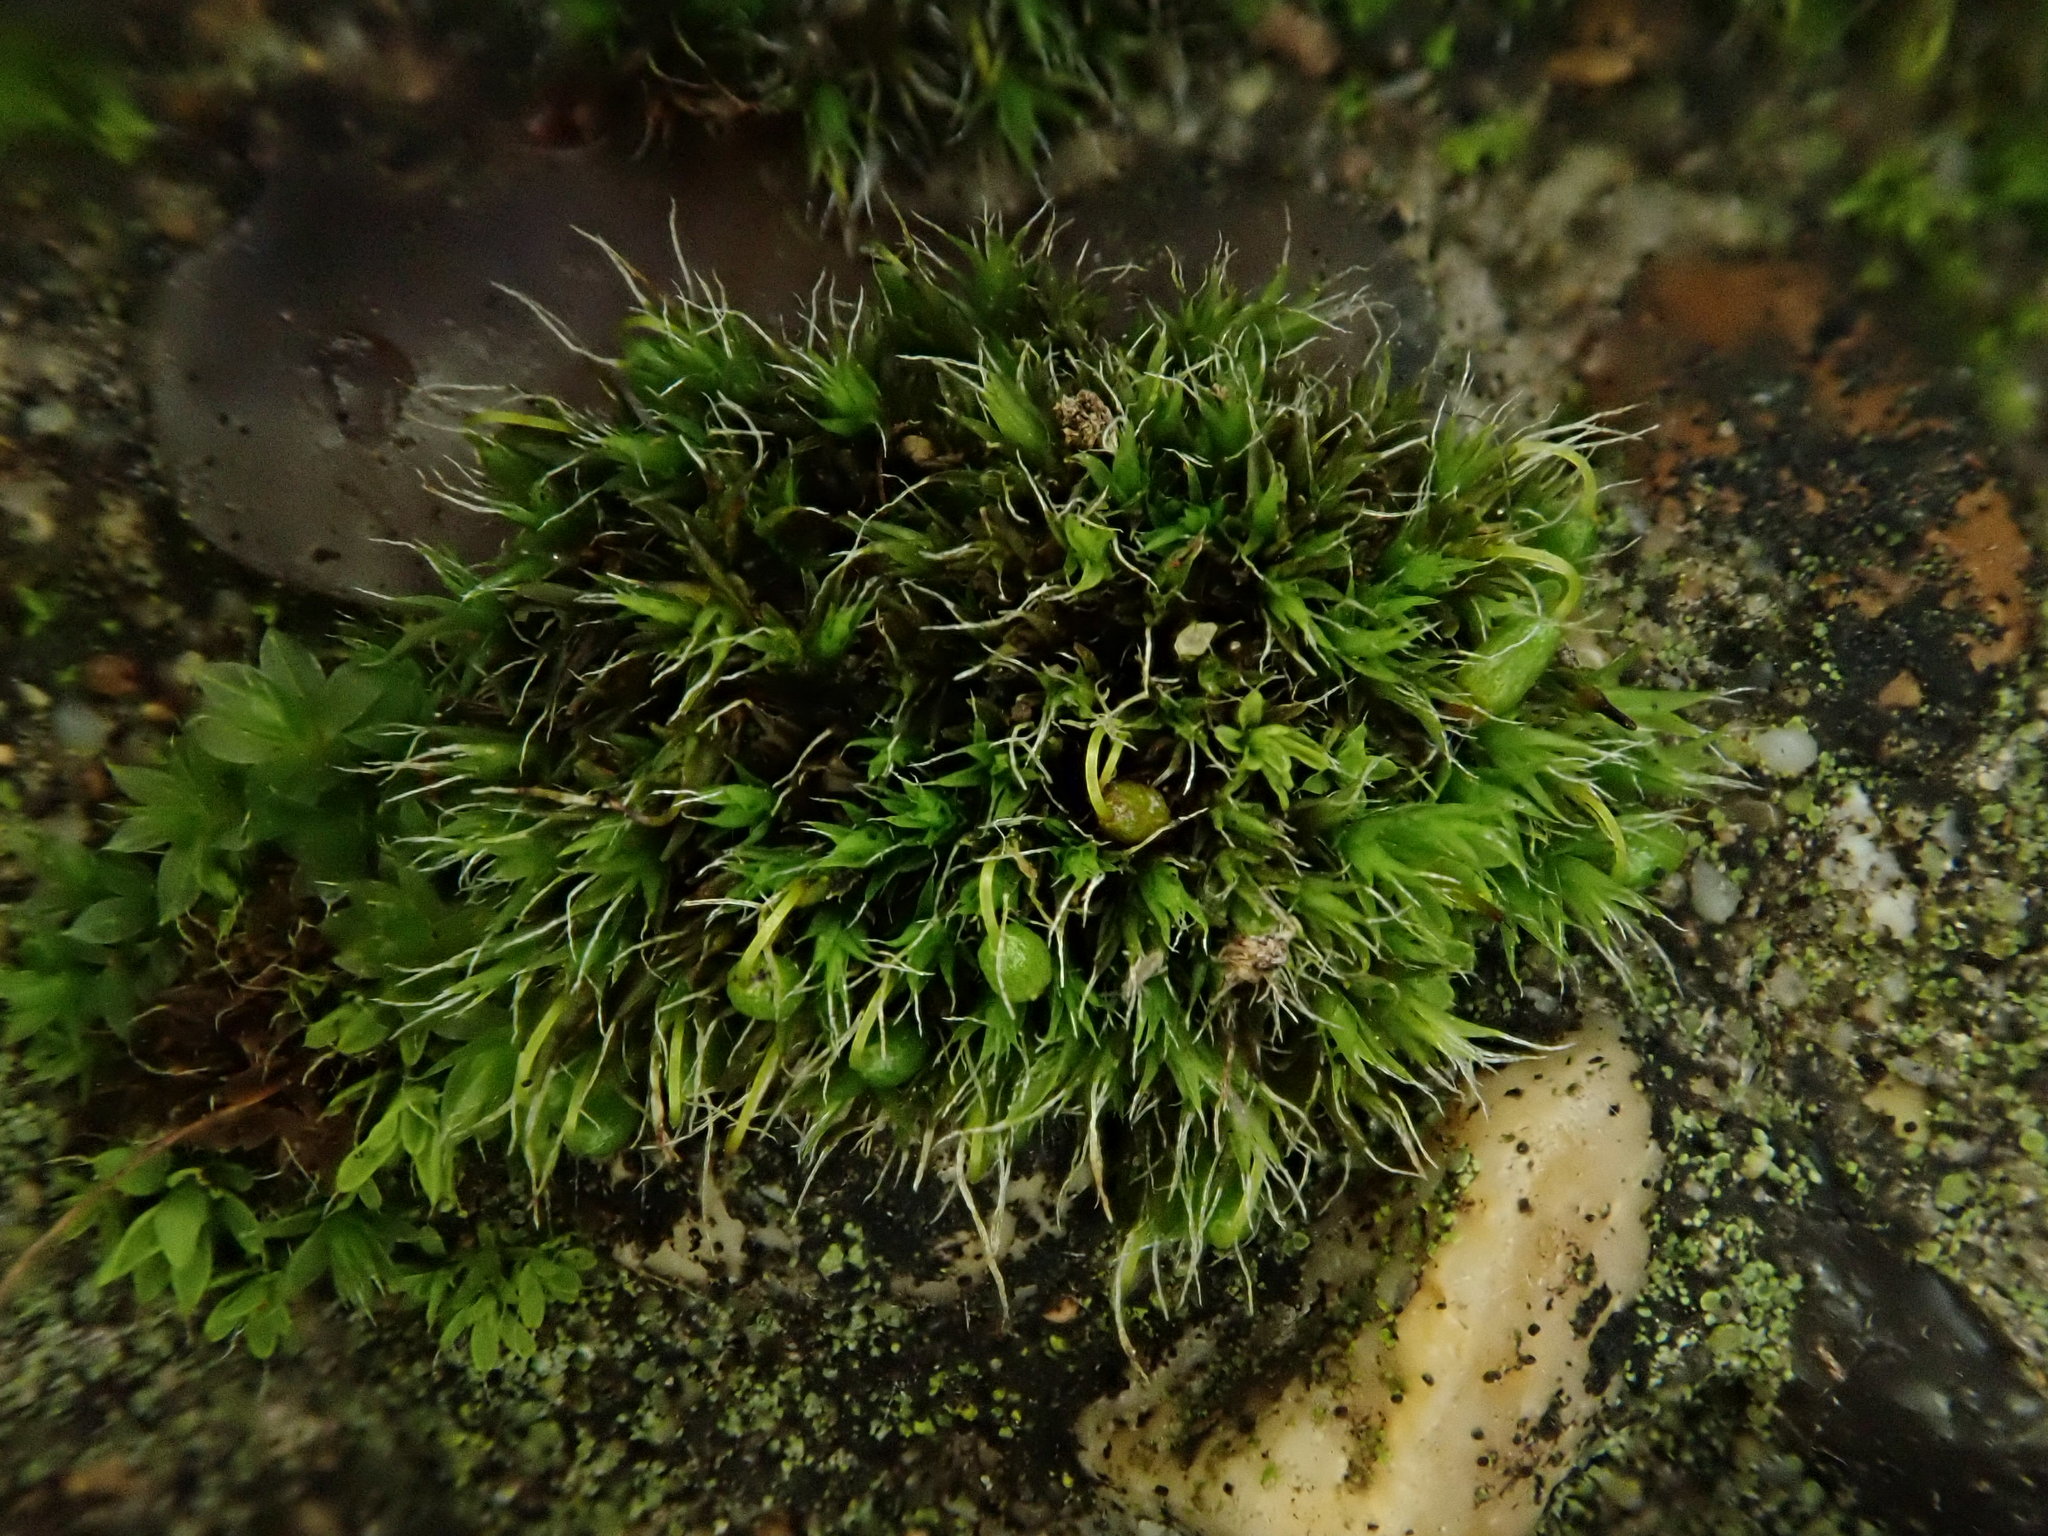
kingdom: Plantae
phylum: Bryophyta
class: Bryopsida
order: Grimmiales
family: Grimmiaceae
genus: Grimmia
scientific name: Grimmia pulvinata
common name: Grey-cushioned grimmia
